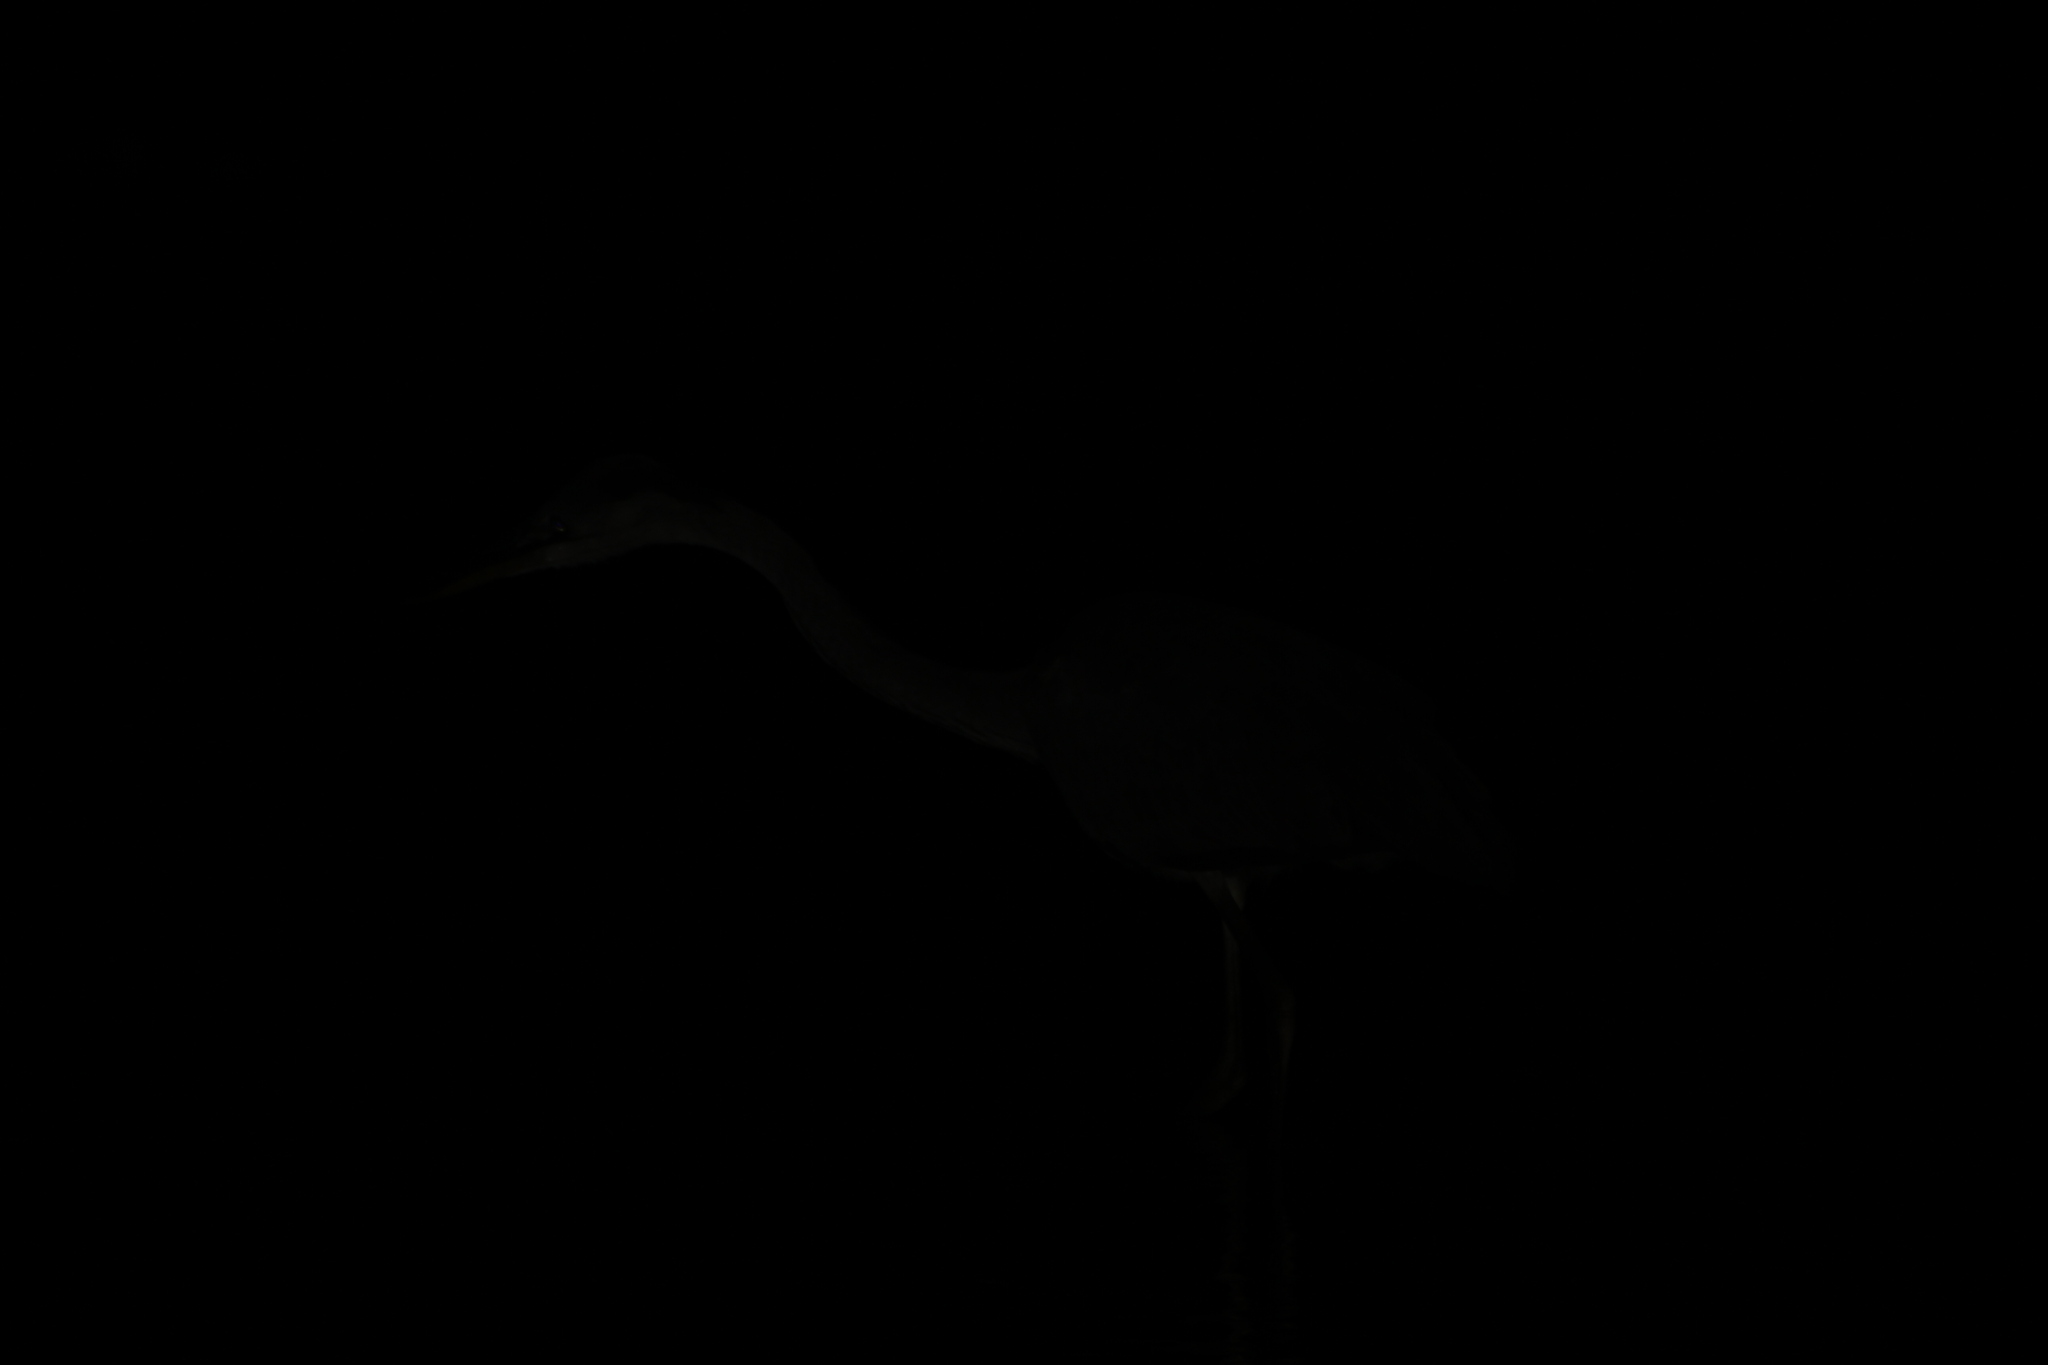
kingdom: Animalia
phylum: Chordata
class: Aves
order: Pelecaniformes
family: Ardeidae
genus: Ardea
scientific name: Ardea cinerea
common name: Grey heron
